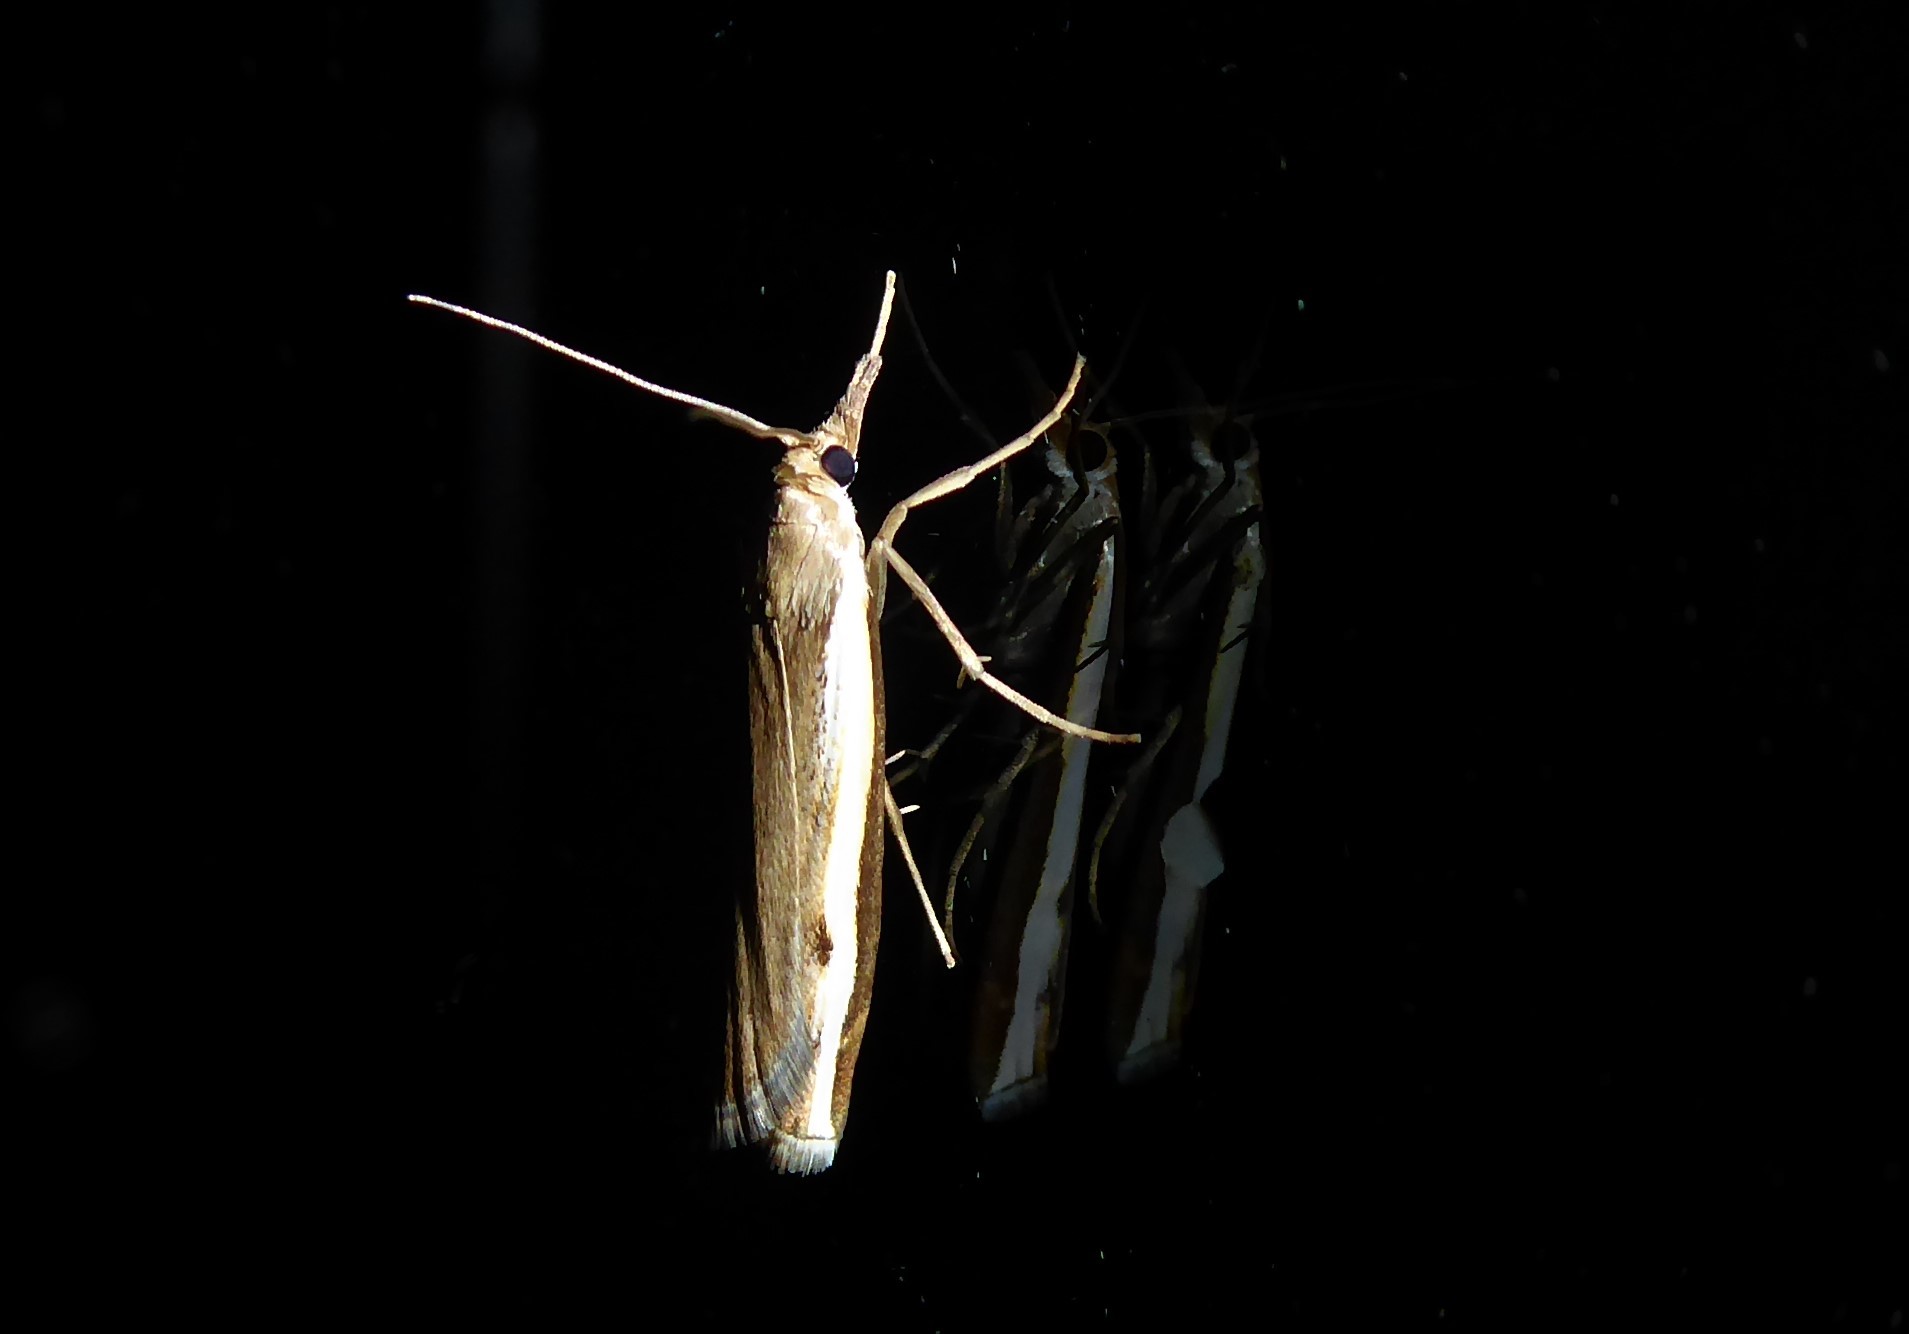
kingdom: Animalia
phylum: Arthropoda
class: Insecta
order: Lepidoptera
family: Crambidae
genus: Orocrambus
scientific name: Orocrambus flexuosellus
